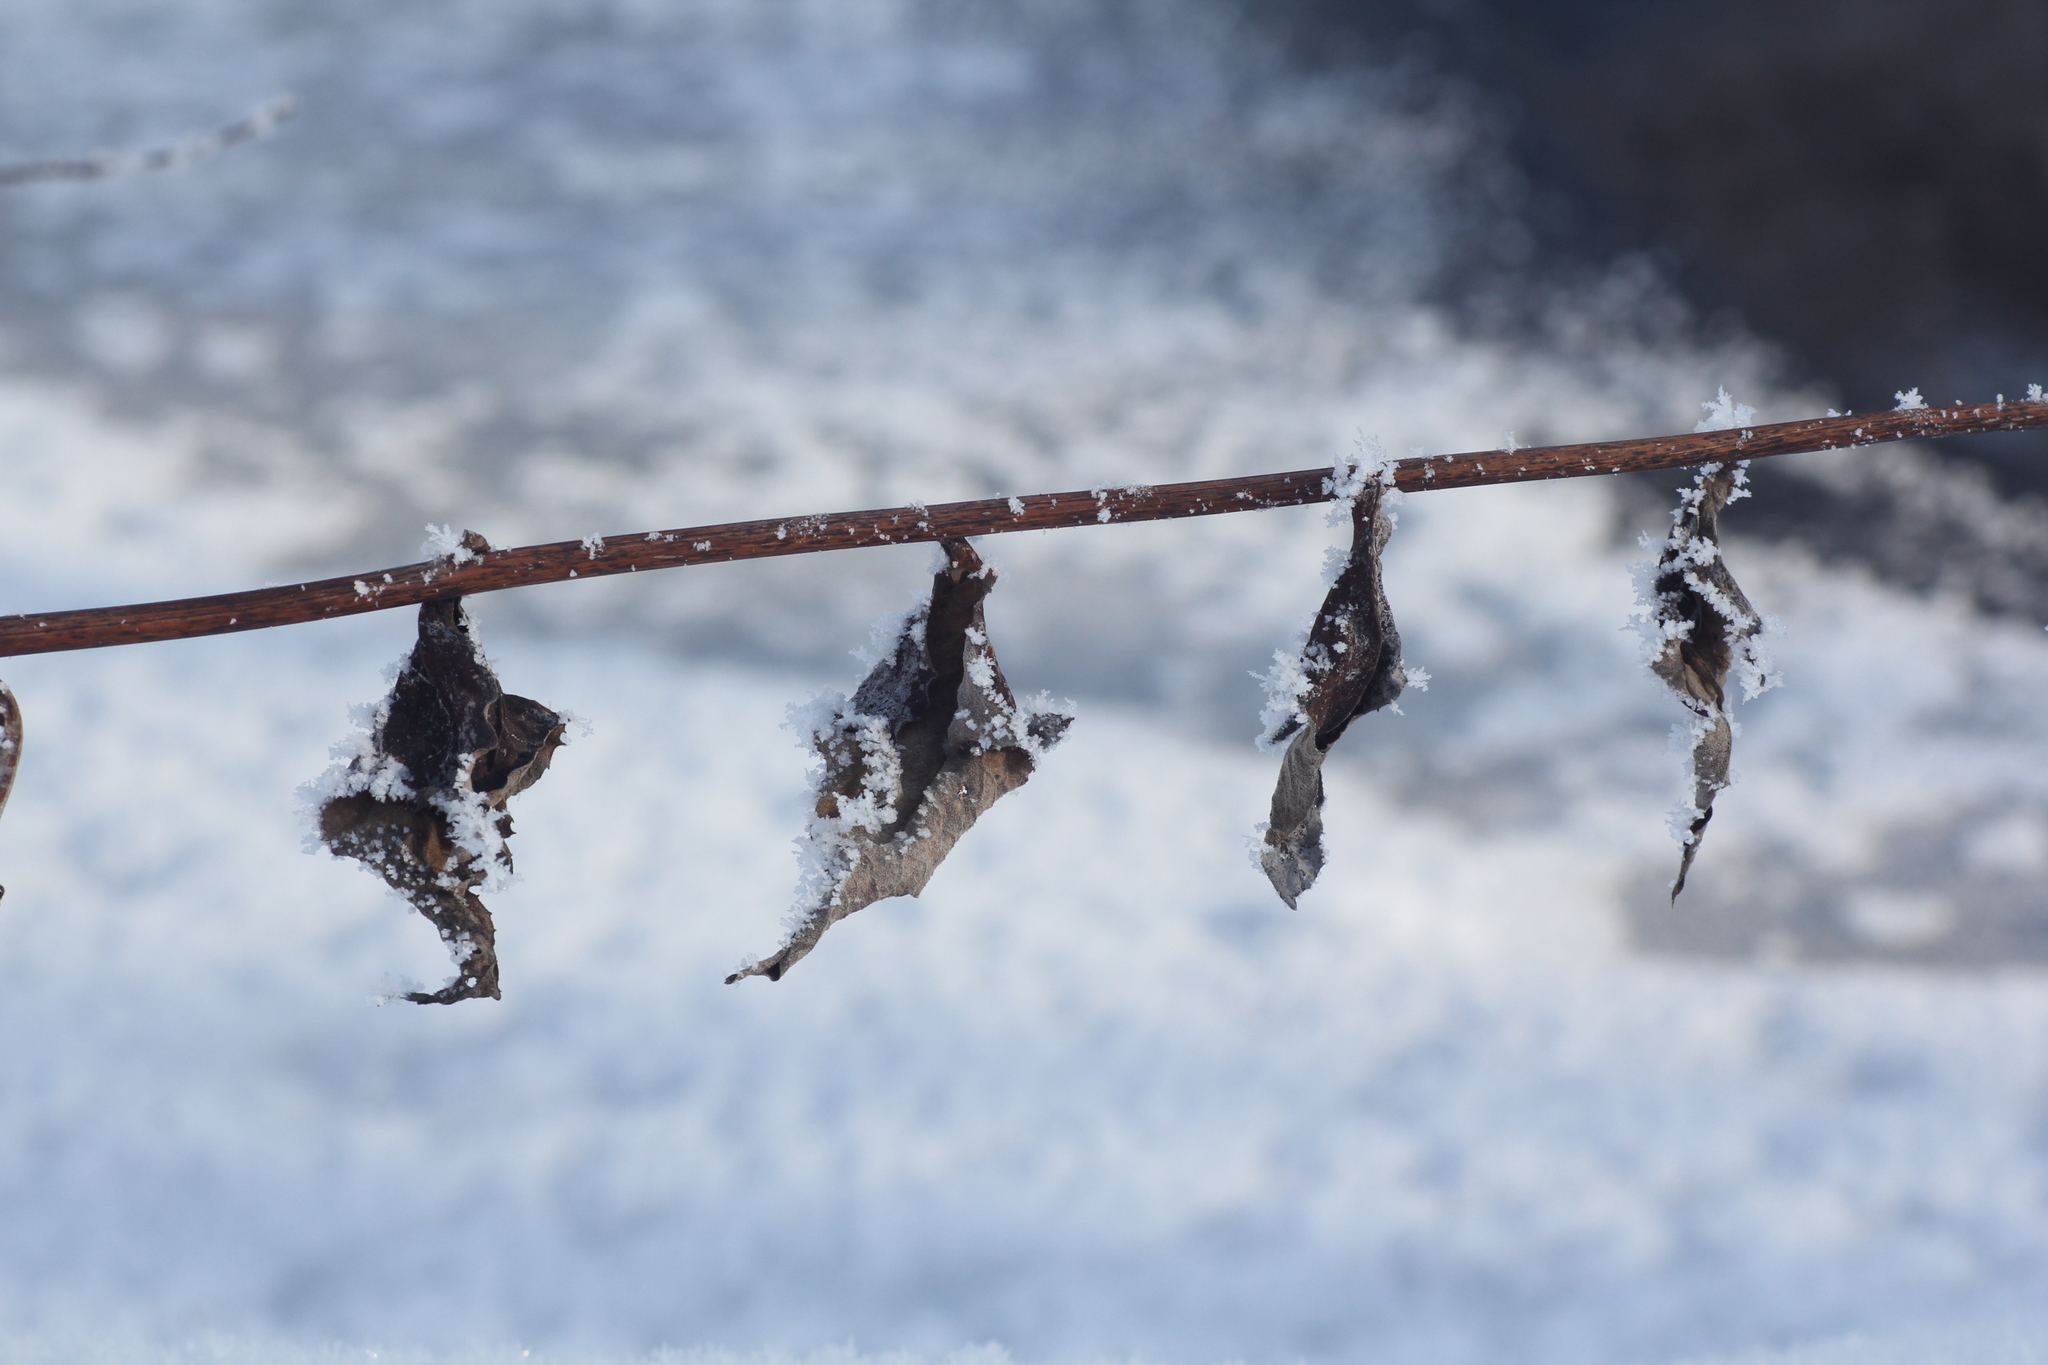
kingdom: Plantae
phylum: Tracheophyta
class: Magnoliopsida
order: Asterales
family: Asteraceae
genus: Parasenecio
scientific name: Parasenecio hastatus
